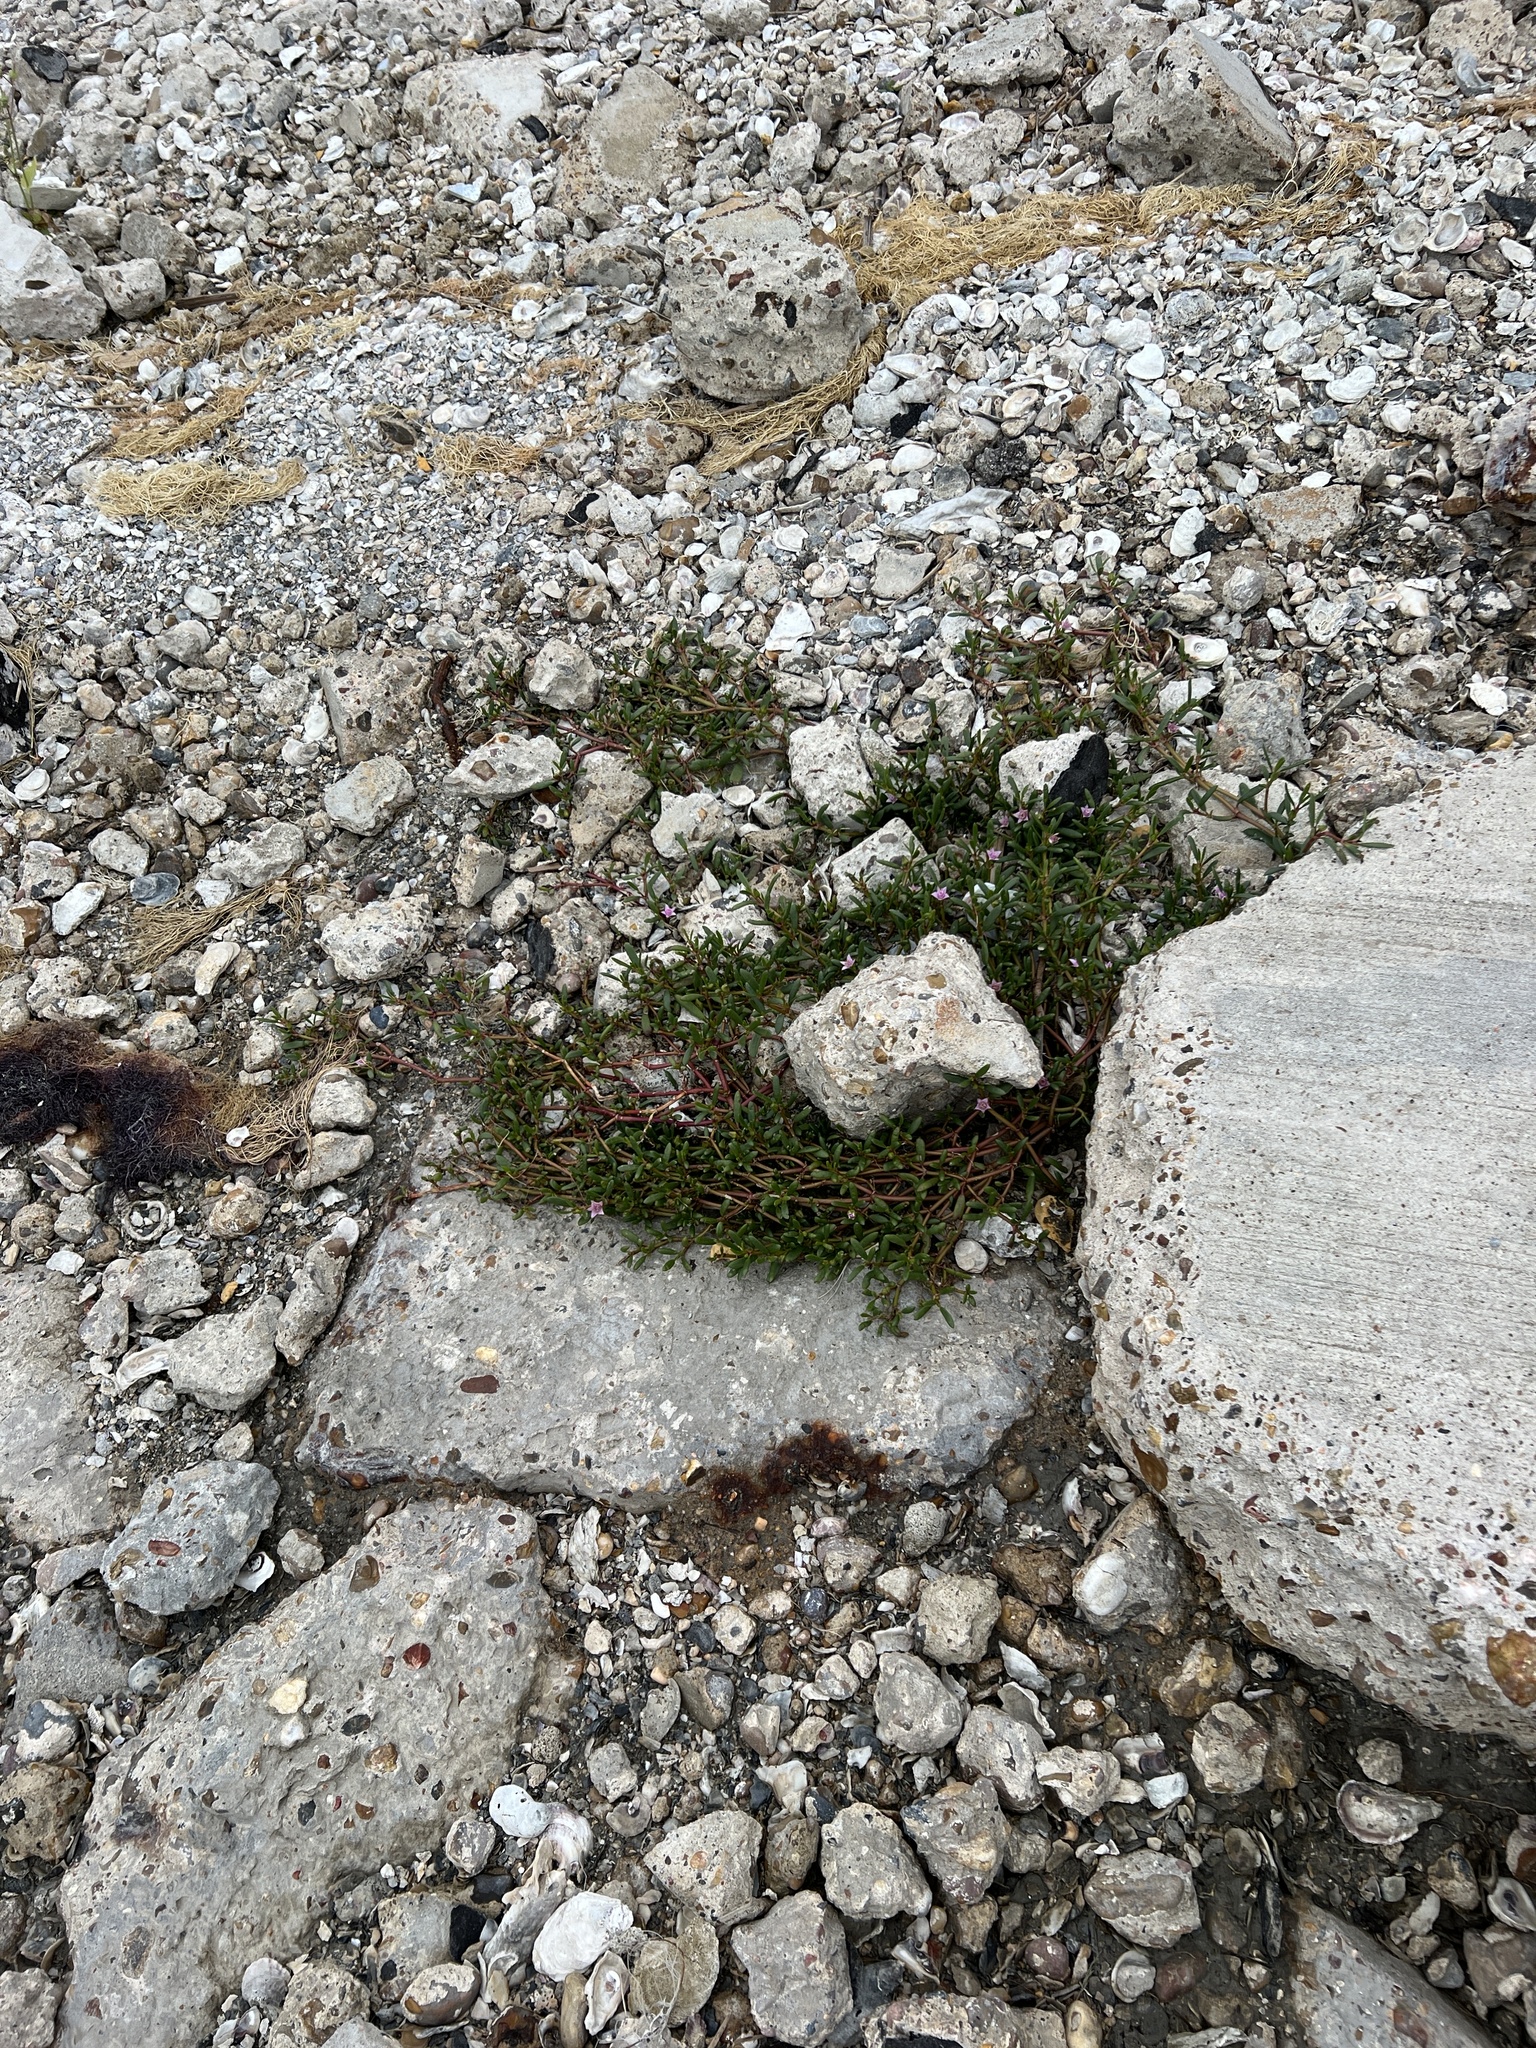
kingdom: Plantae
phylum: Tracheophyta
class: Magnoliopsida
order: Caryophyllales
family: Aizoaceae
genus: Sesuvium
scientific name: Sesuvium portulacastrum
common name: Sea-purslane
